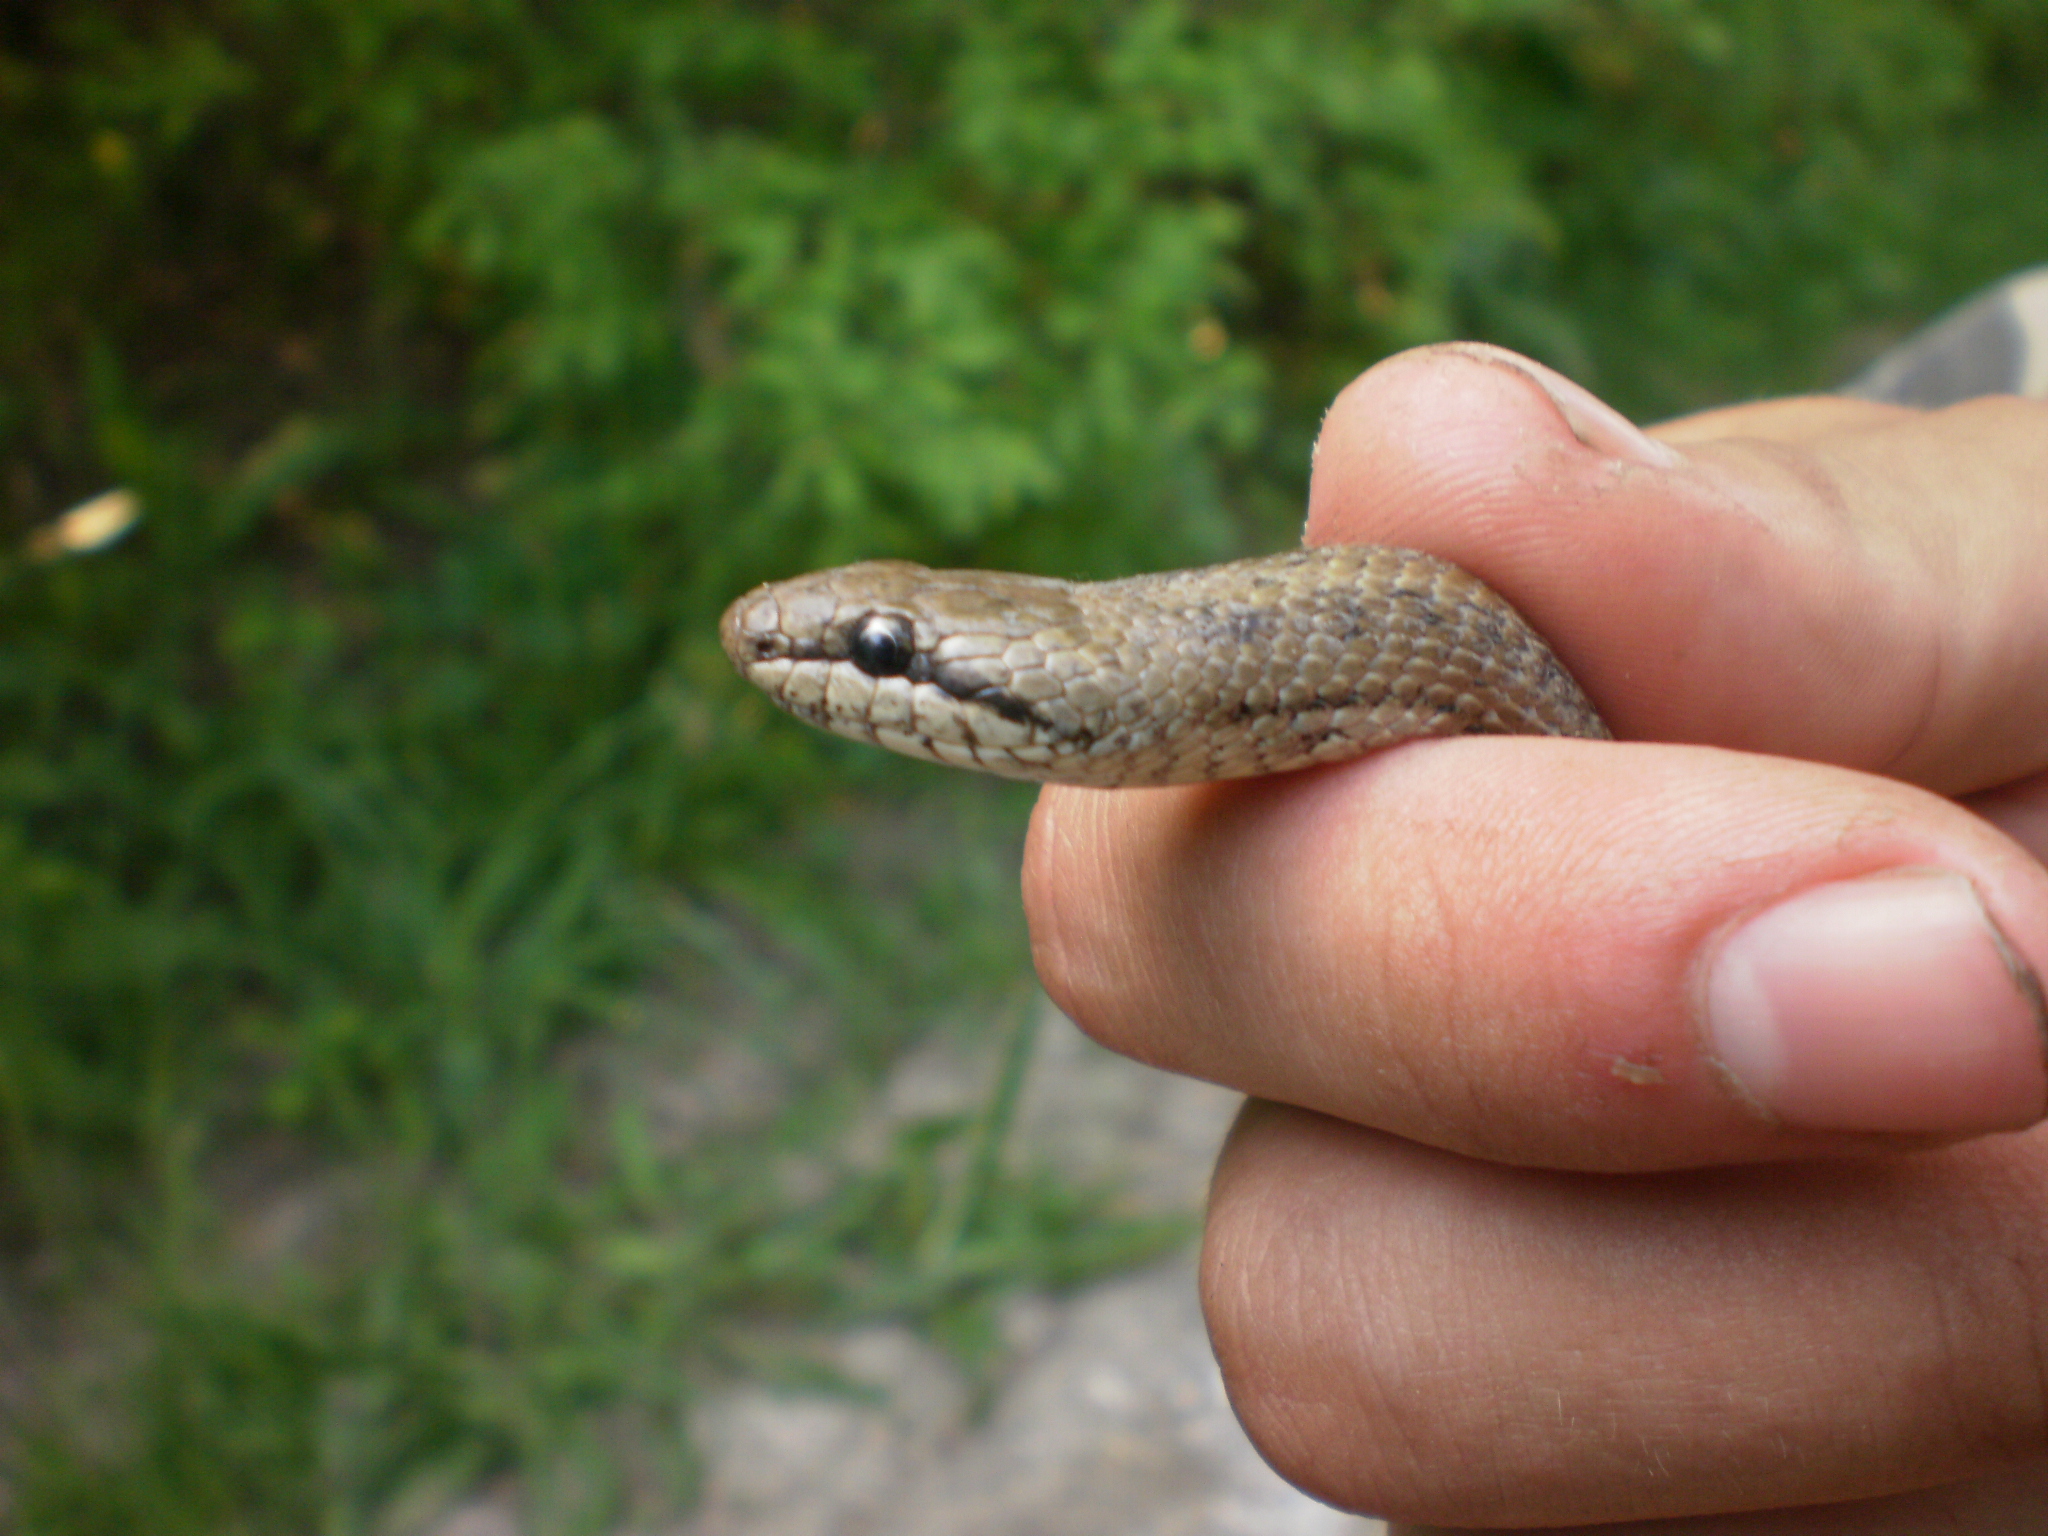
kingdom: Animalia
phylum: Chordata
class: Squamata
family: Colubridae
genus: Coronella
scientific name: Coronella austriaca
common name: Smooth snake
